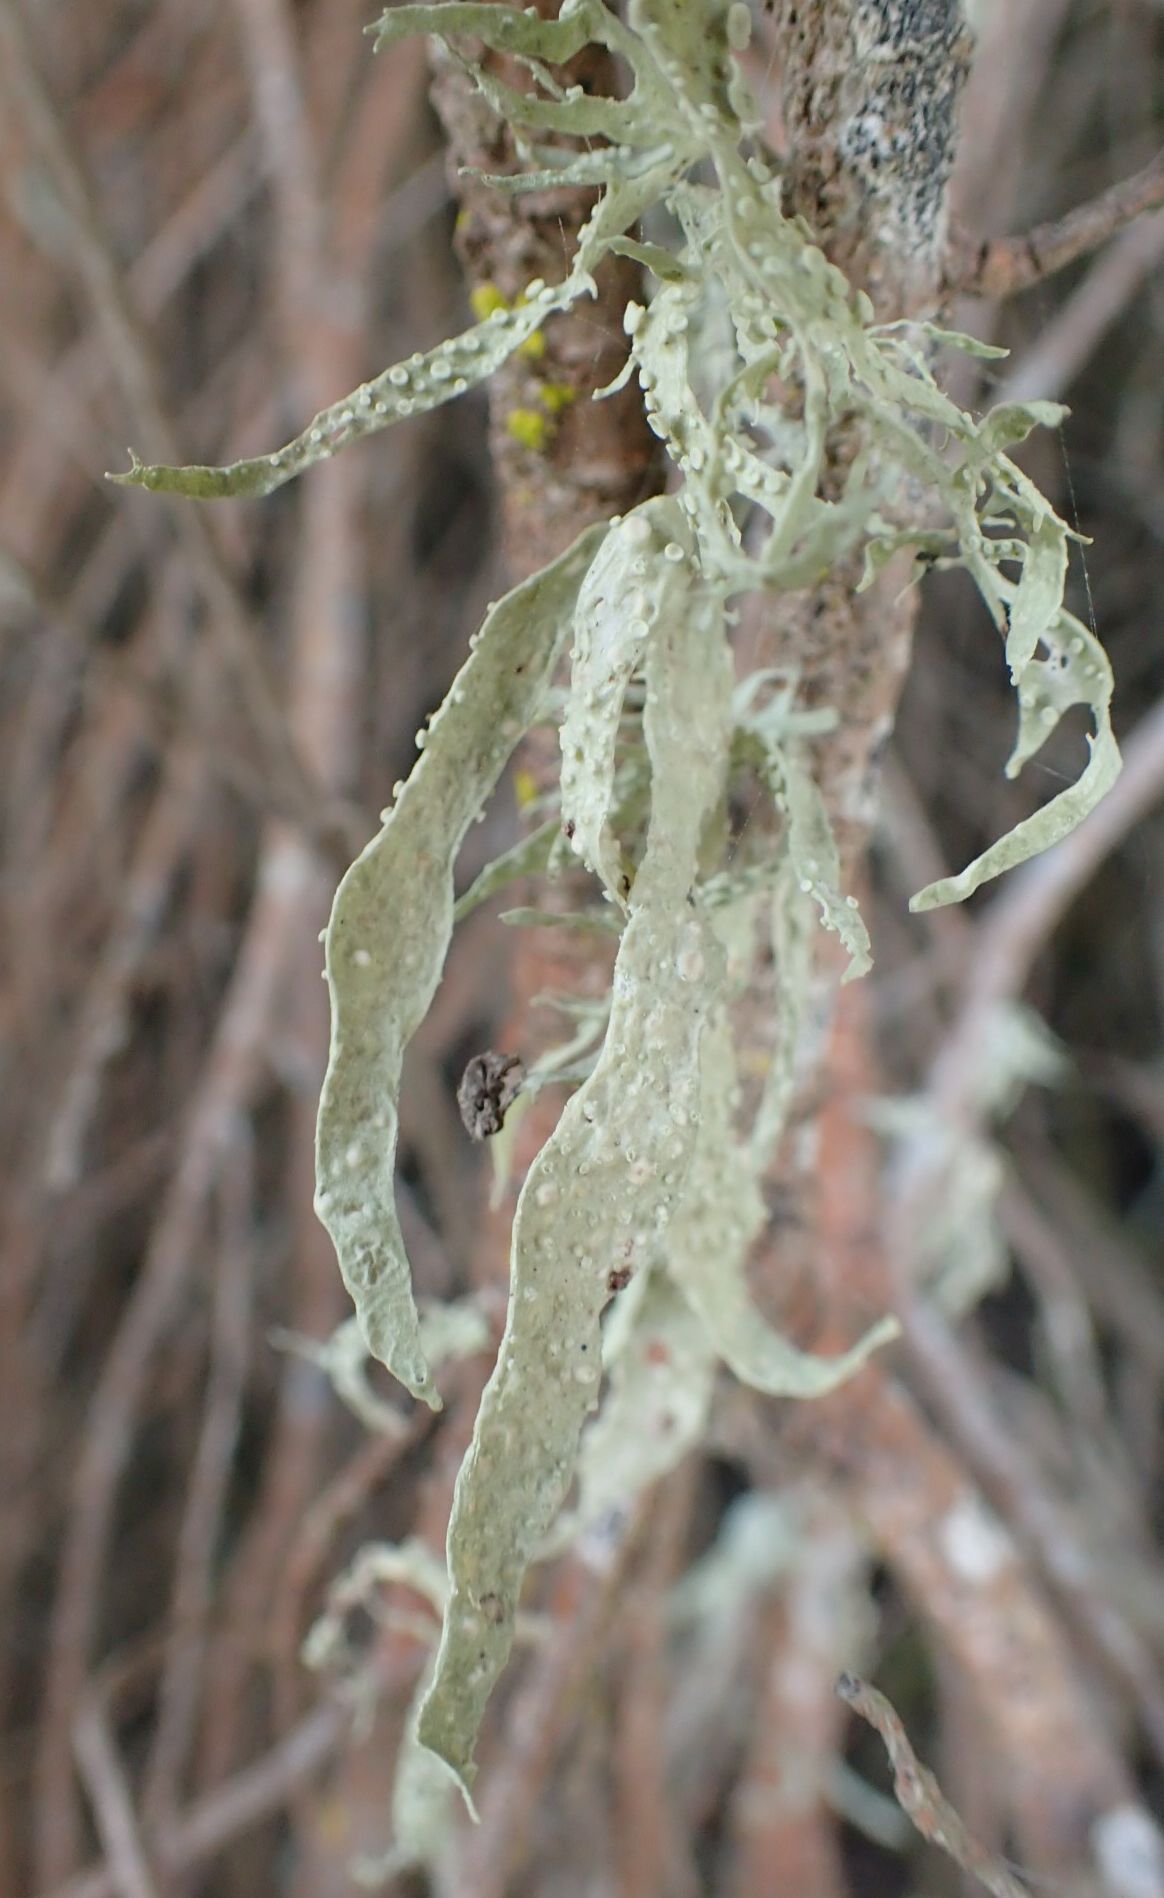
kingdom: Fungi
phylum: Ascomycota
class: Lecanoromycetes
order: Lecanorales
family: Ramalinaceae
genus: Ramalina
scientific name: Ramalina celastri
